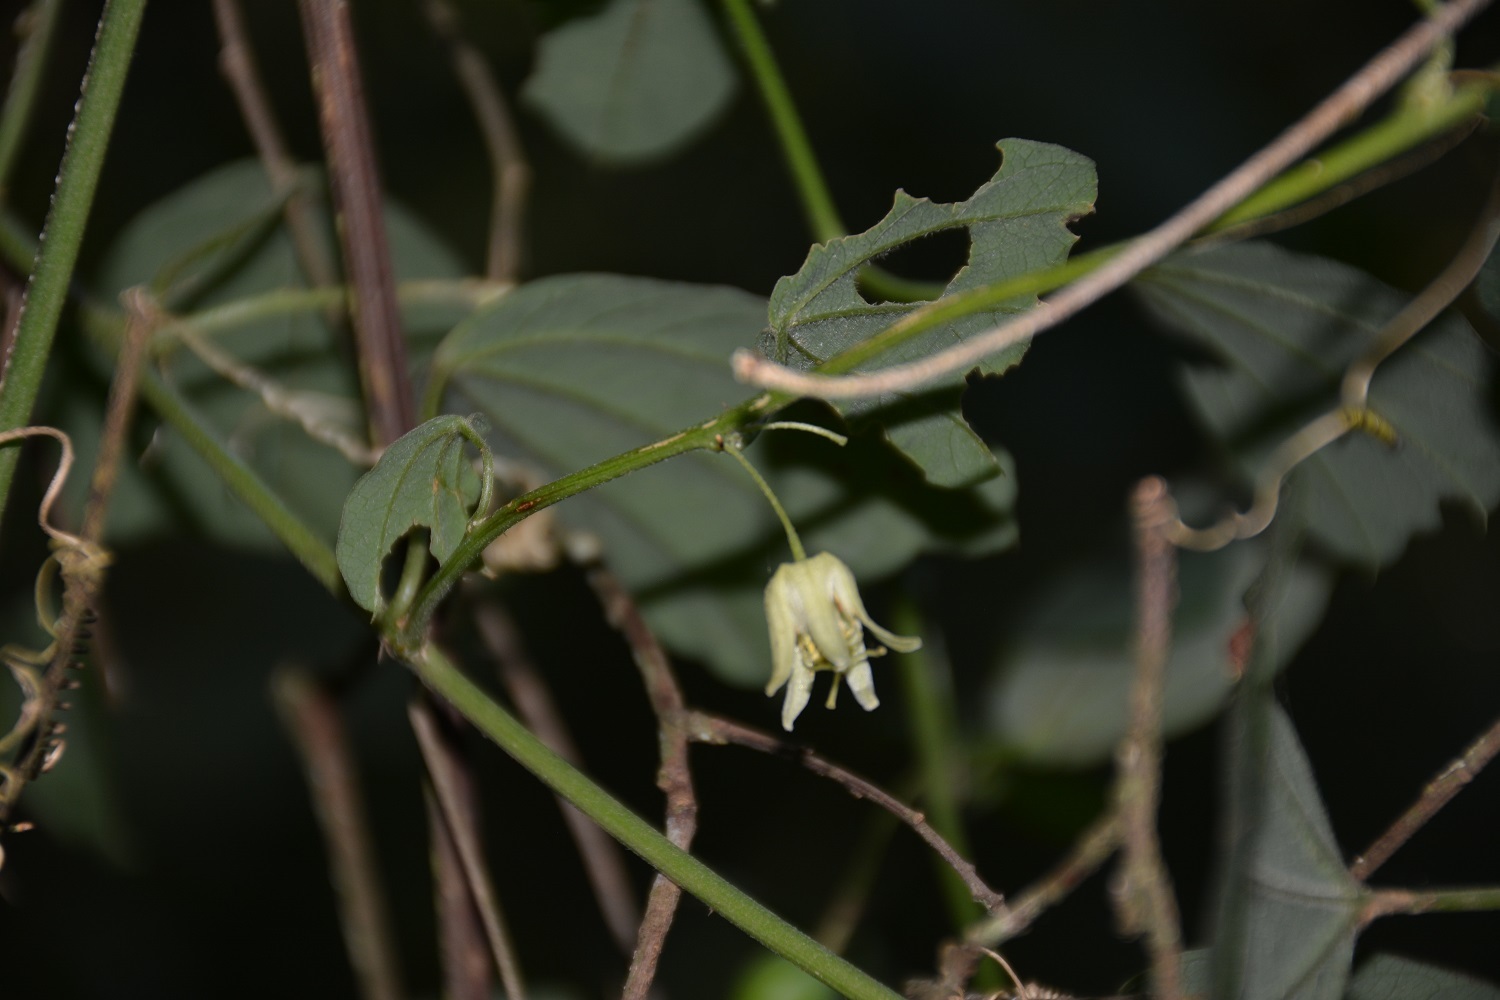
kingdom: Plantae
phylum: Tracheophyta
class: Magnoliopsida
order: Malpighiales
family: Passifloraceae
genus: Passiflora
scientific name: Passiflora pavonis
